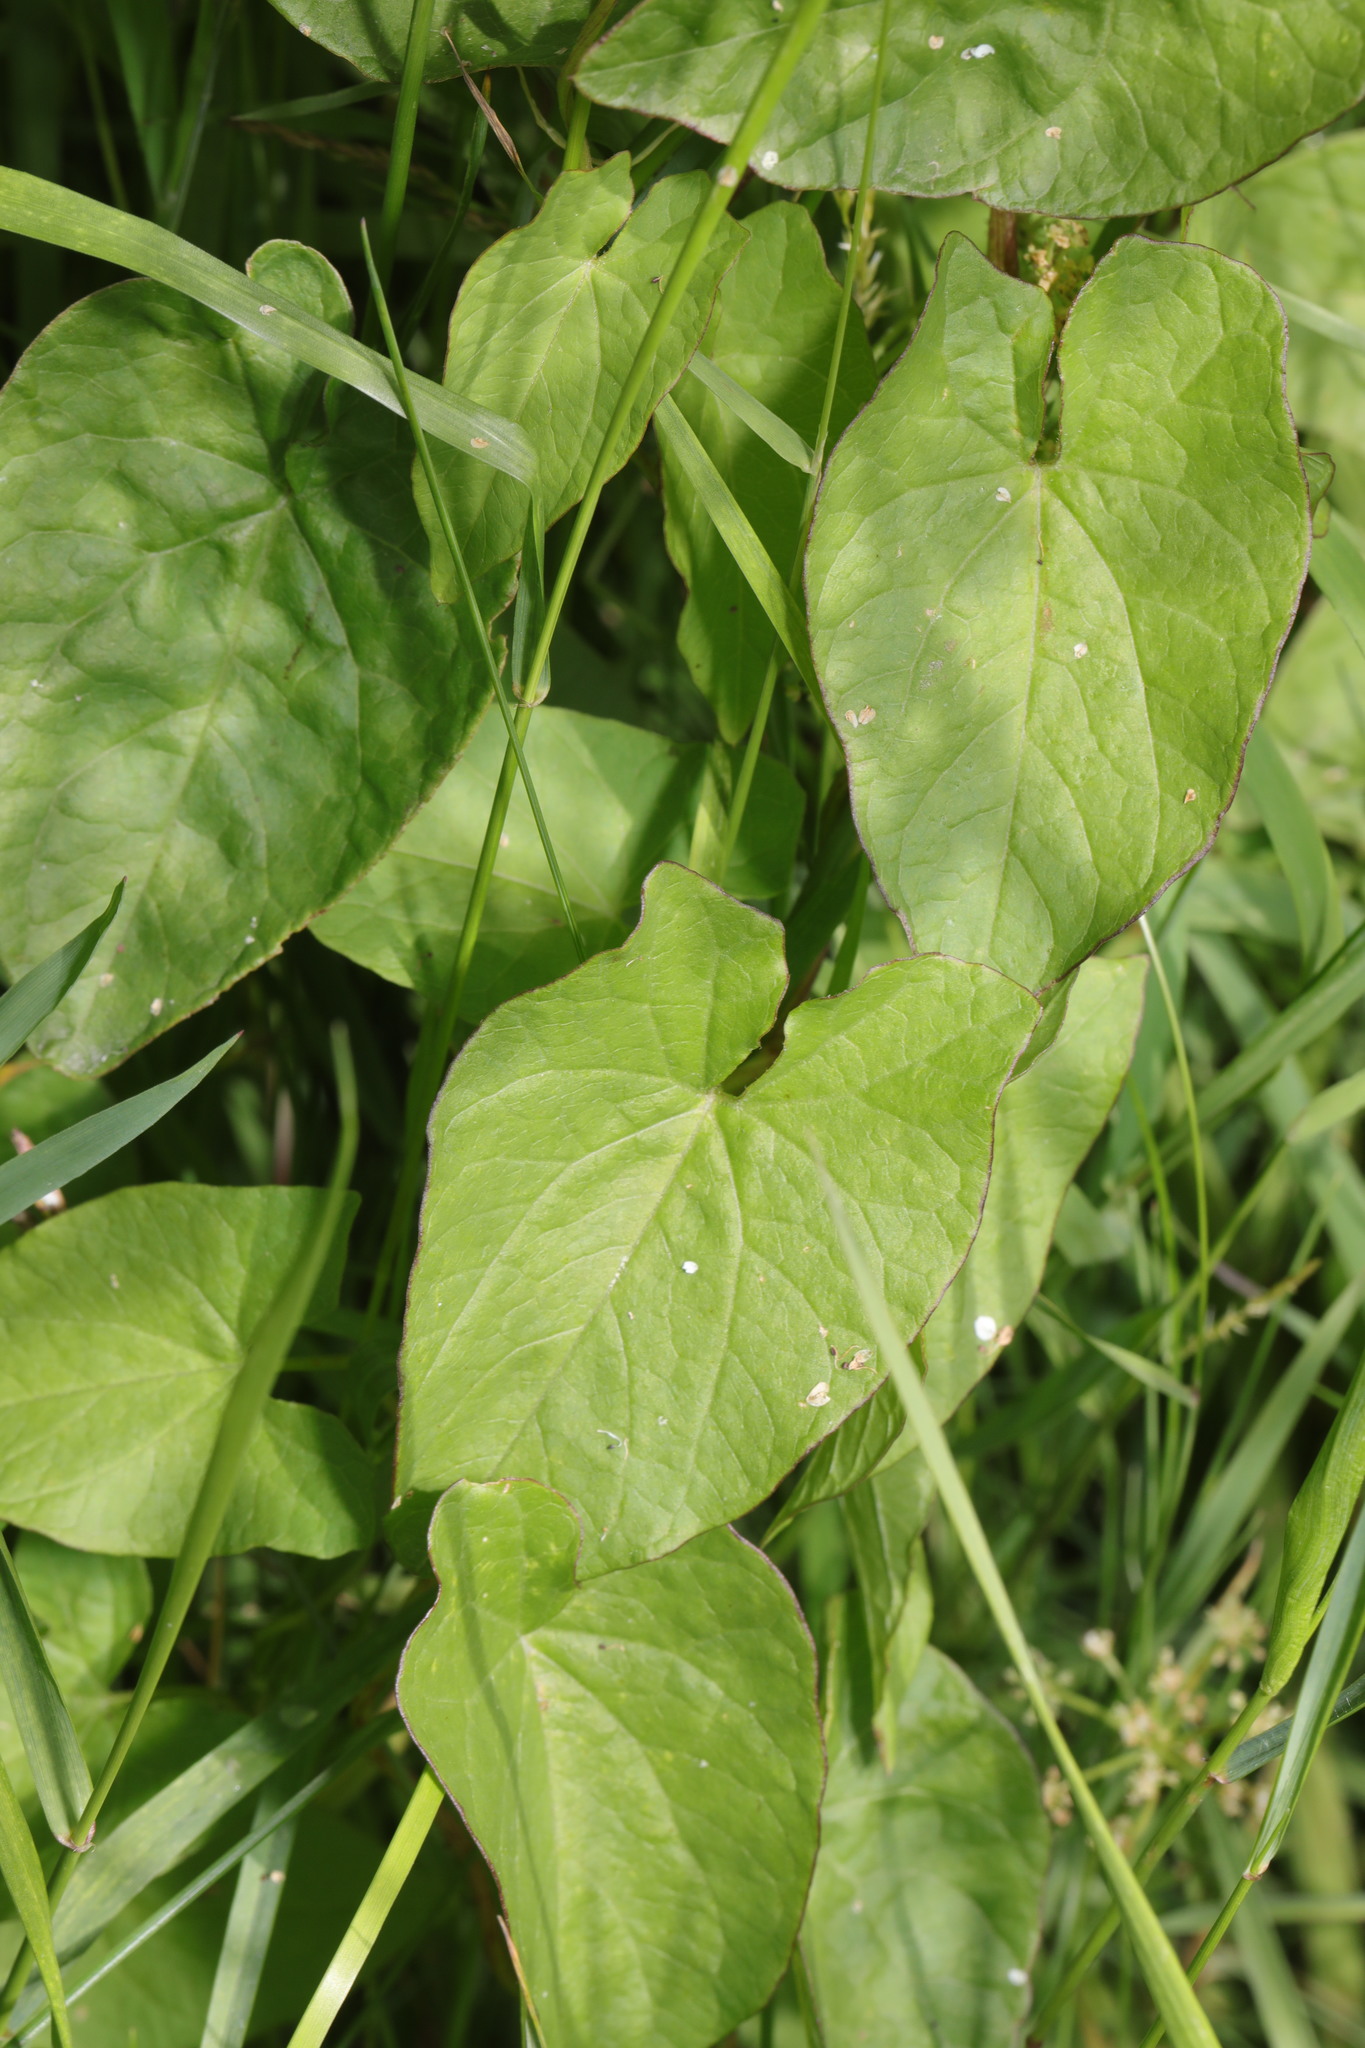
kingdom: Plantae
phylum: Tracheophyta
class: Magnoliopsida
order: Solanales
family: Convolvulaceae
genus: Calystegia
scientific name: Calystegia
